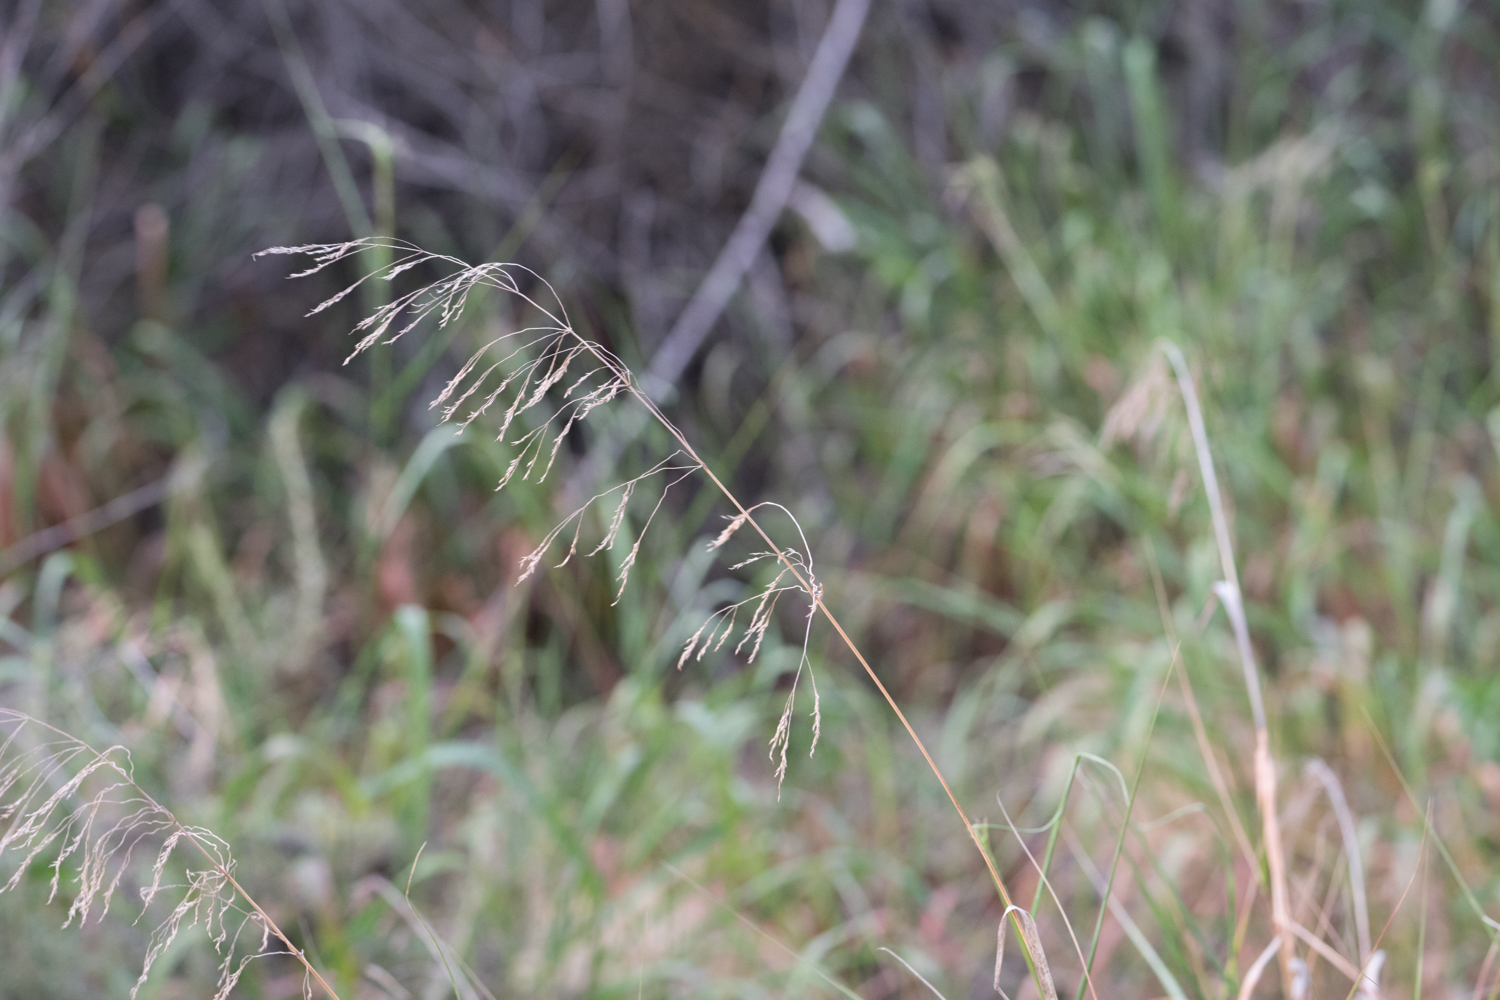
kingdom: Plantae
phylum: Tracheophyta
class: Liliopsida
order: Poales
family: Poaceae
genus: Oloptum
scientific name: Oloptum miliaceum
